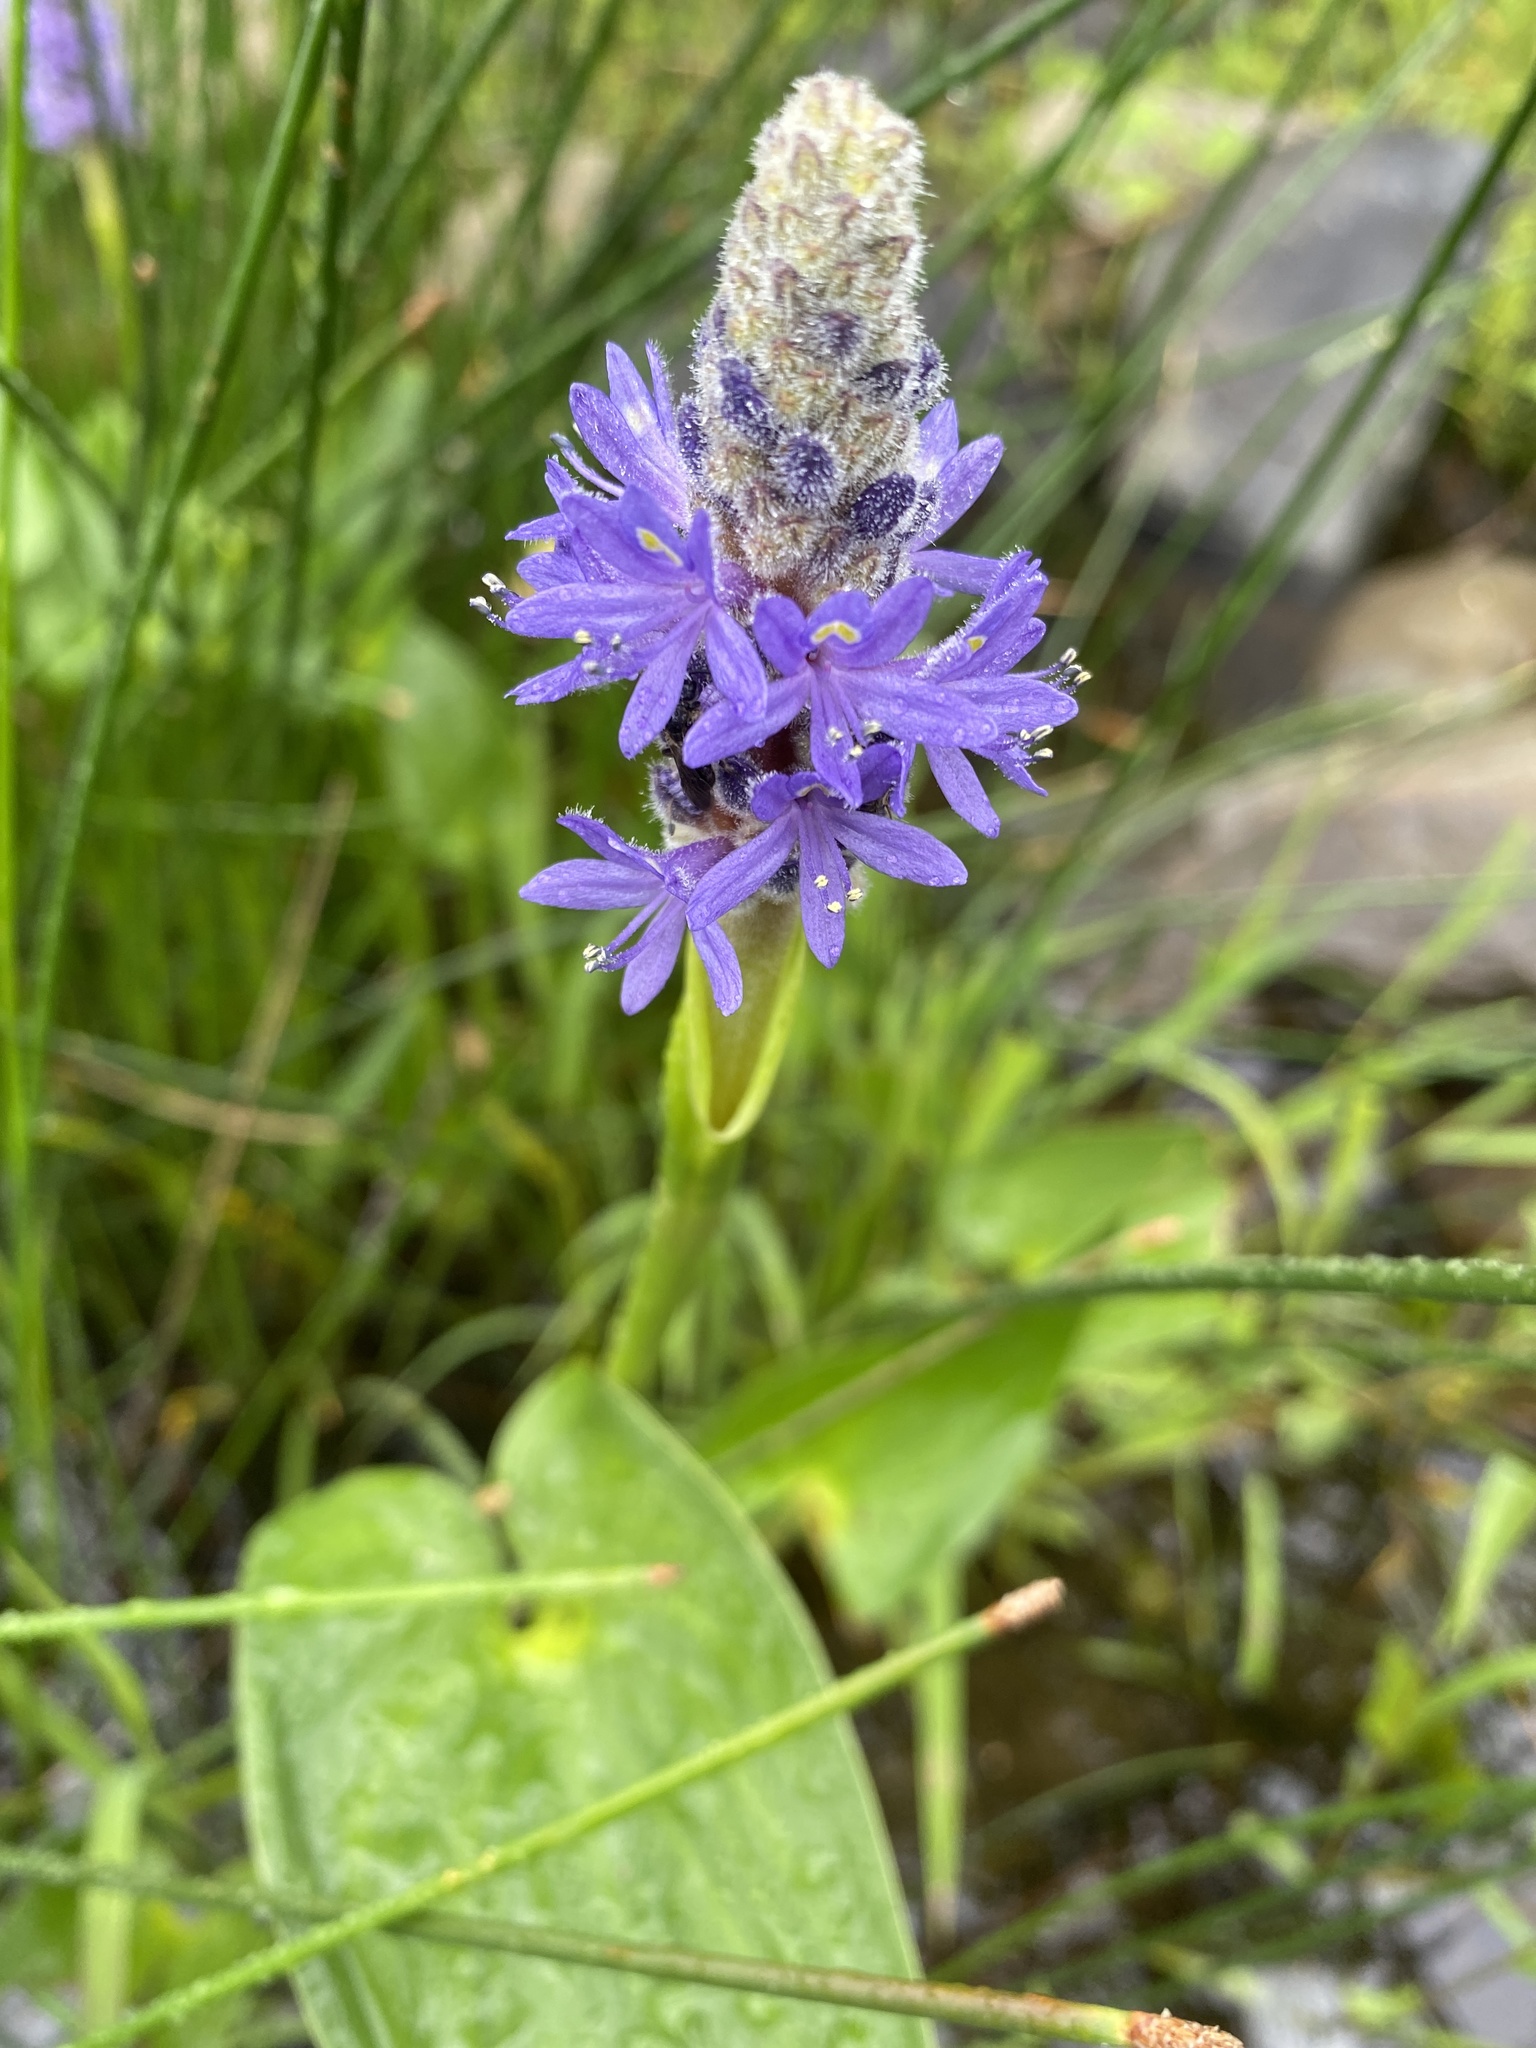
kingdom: Plantae
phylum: Tracheophyta
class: Liliopsida
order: Commelinales
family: Pontederiaceae
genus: Pontederia
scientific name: Pontederia cordata
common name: Pickerelweed
